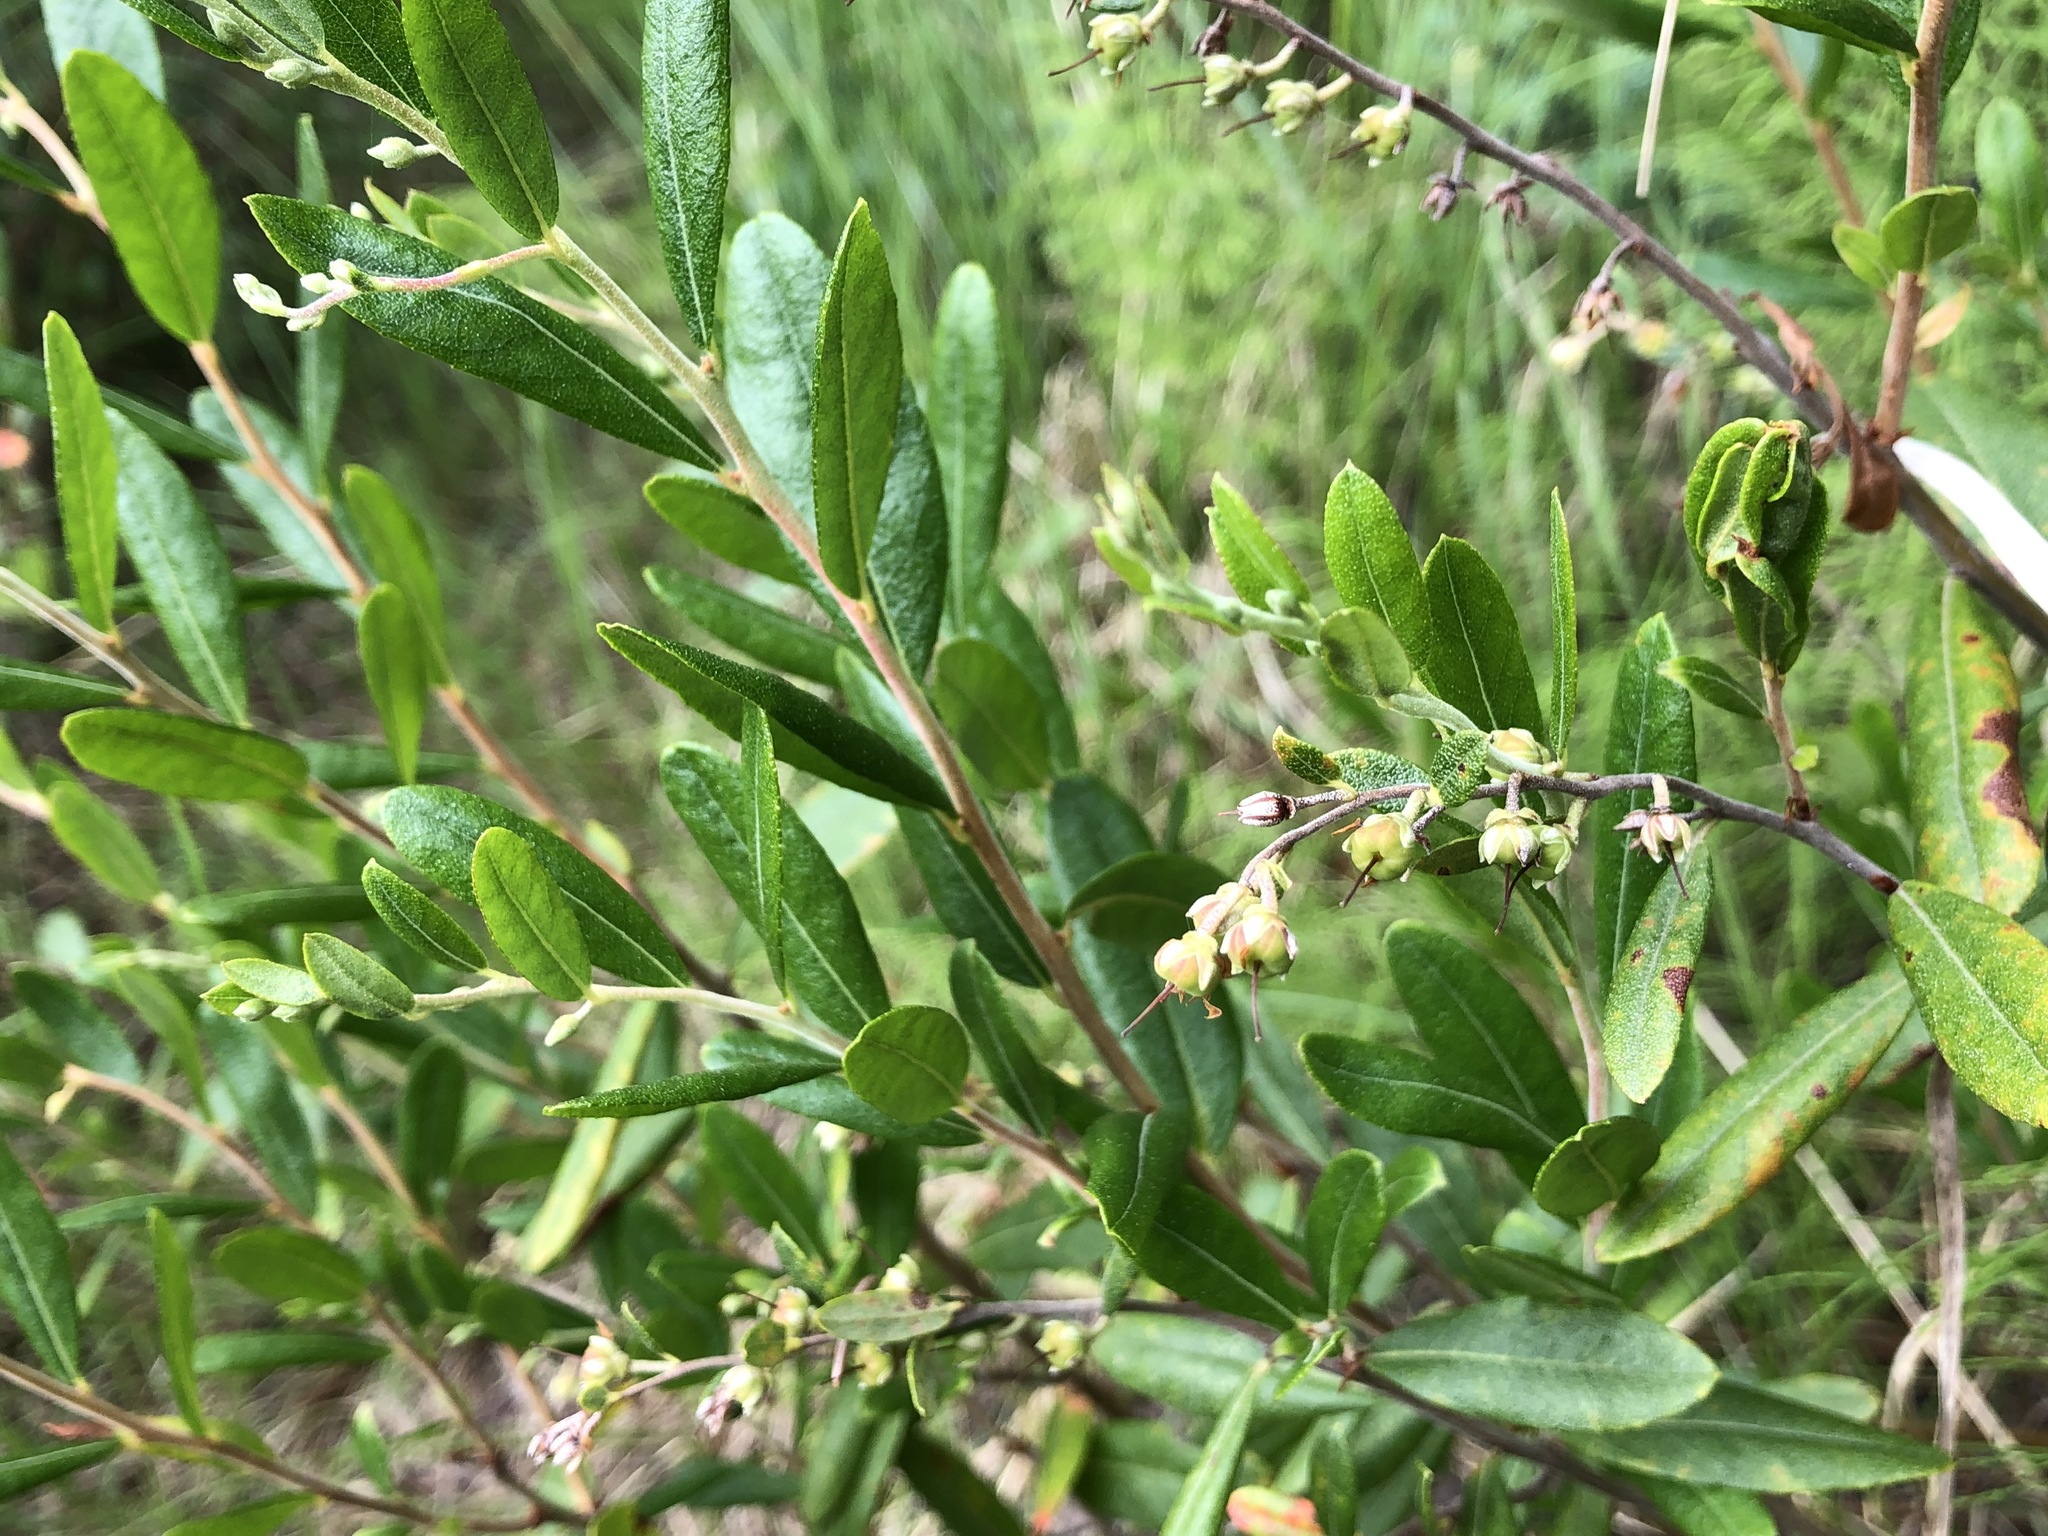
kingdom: Plantae
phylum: Tracheophyta
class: Magnoliopsida
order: Ericales
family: Ericaceae
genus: Chamaedaphne
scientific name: Chamaedaphne calyculata
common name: Leatherleaf
